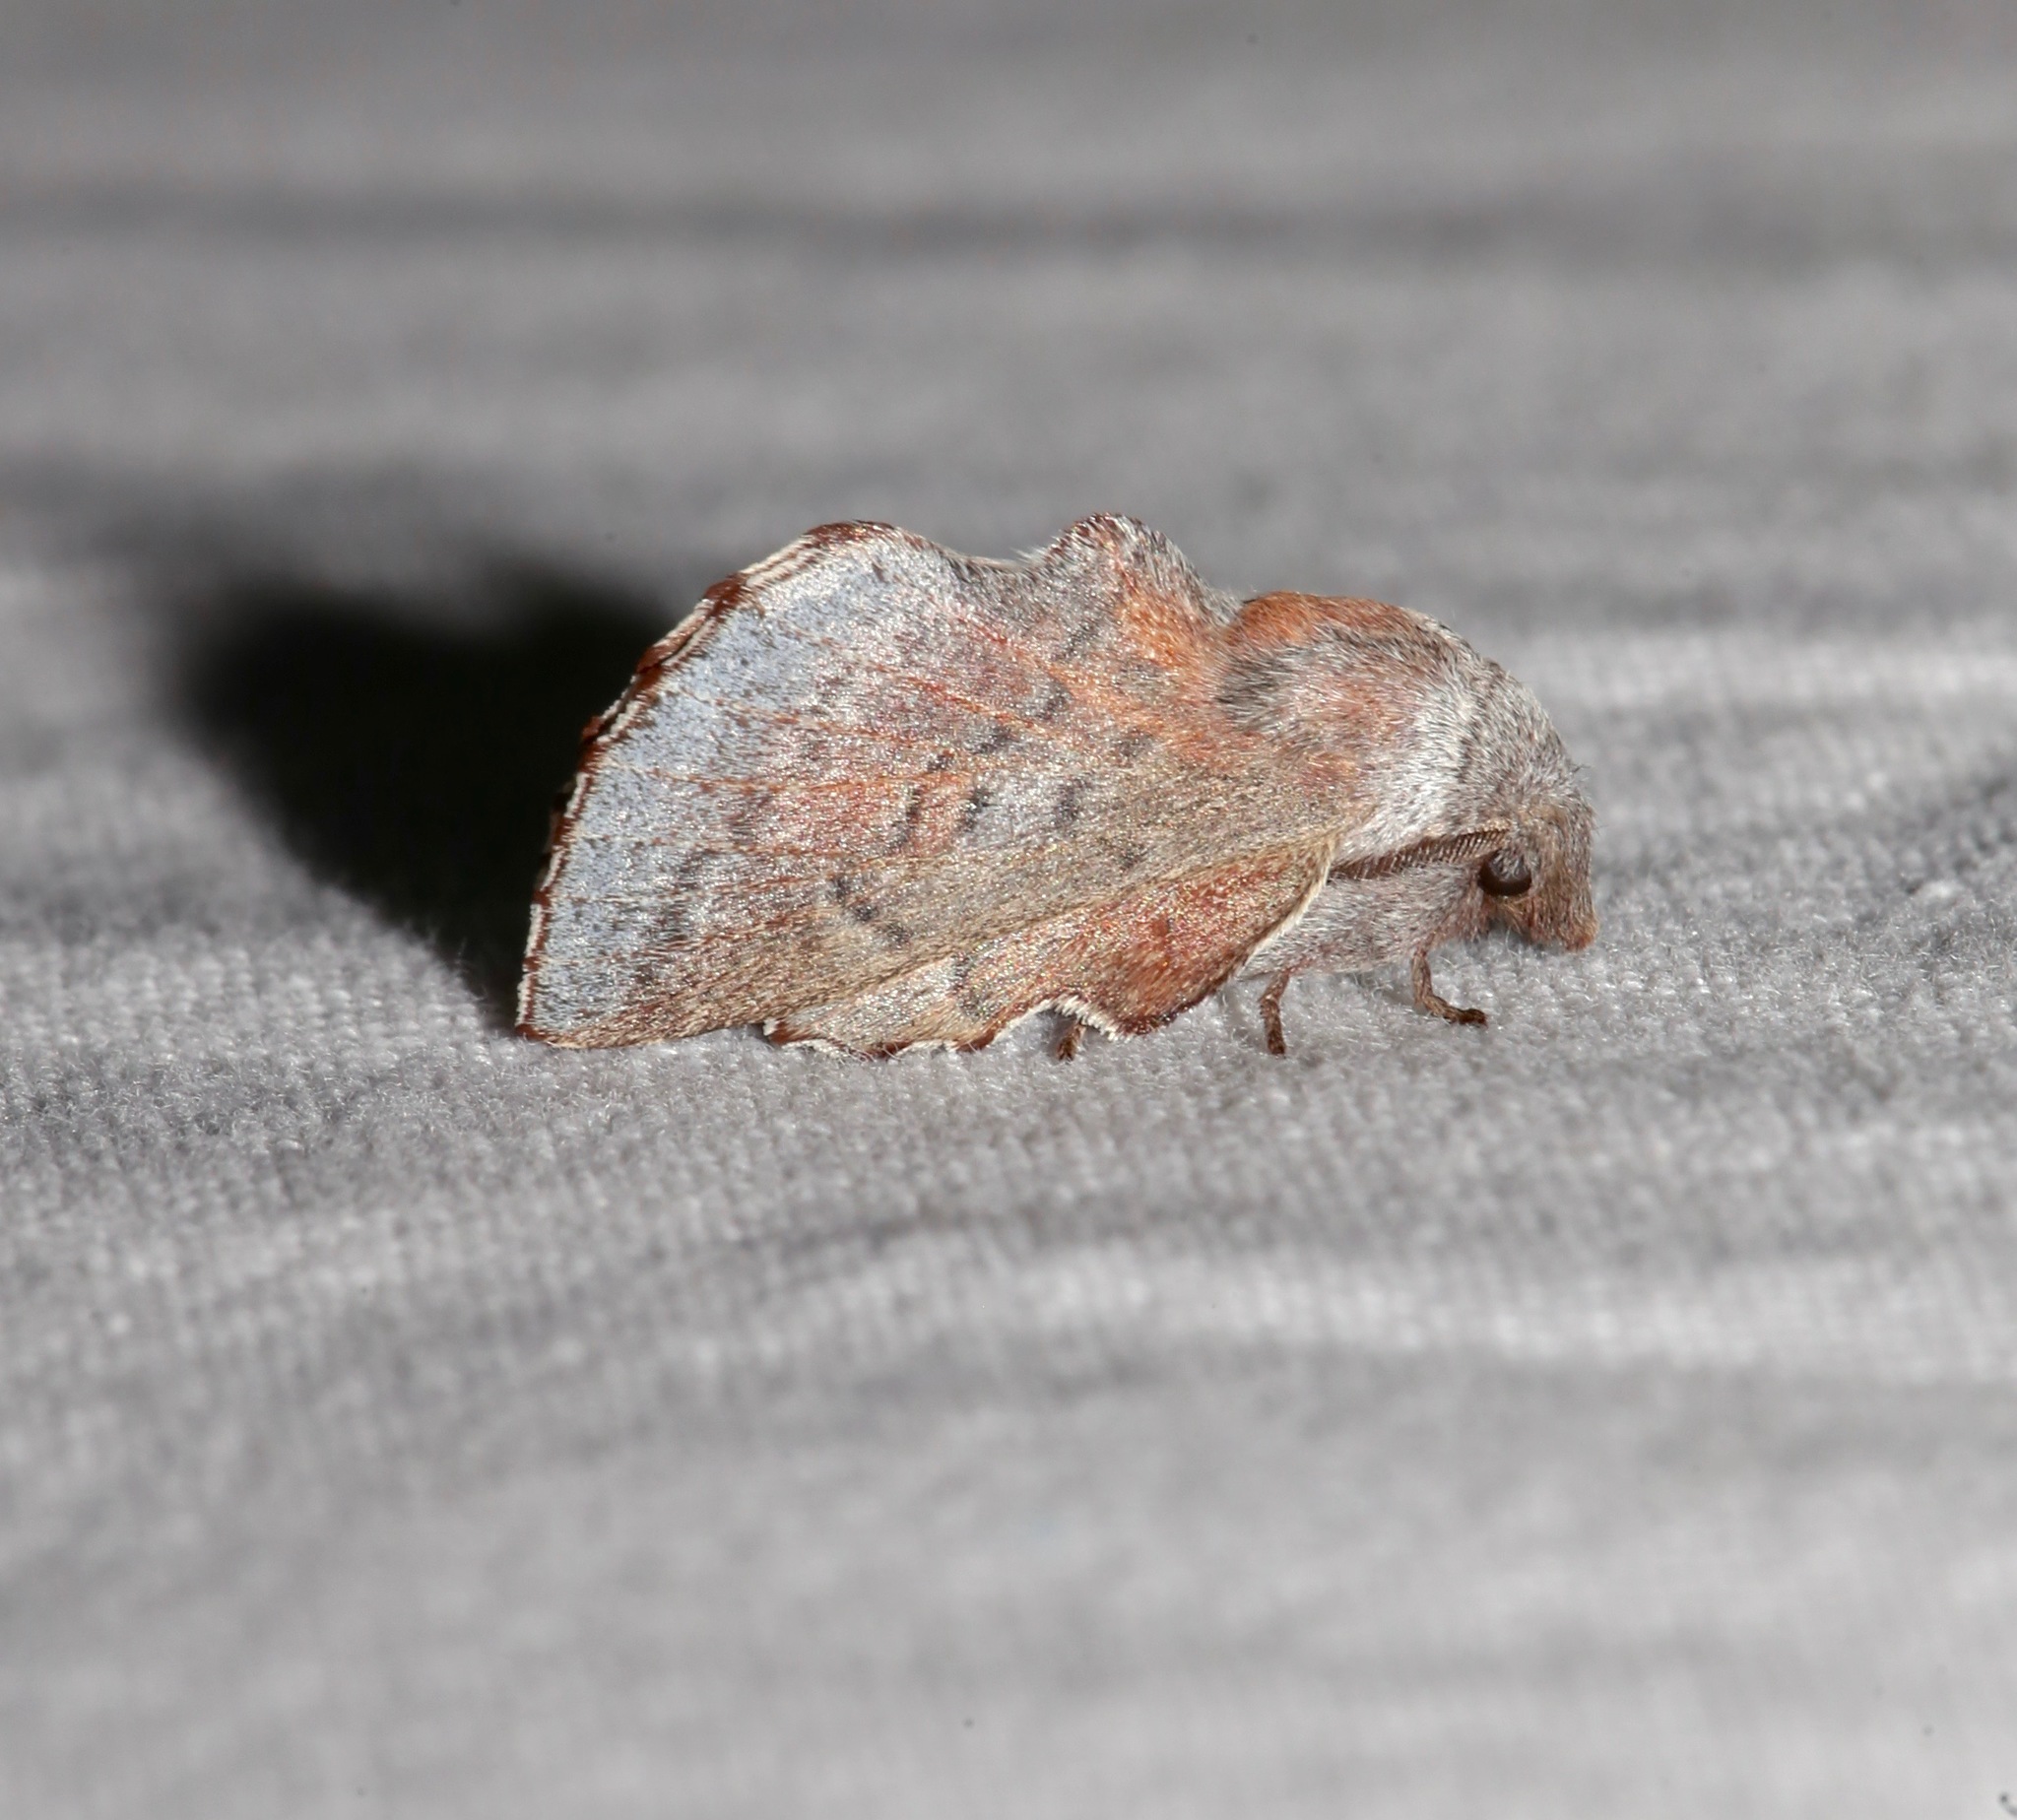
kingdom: Animalia
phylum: Arthropoda
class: Insecta
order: Lepidoptera
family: Lasiocampidae
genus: Phyllodesma
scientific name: Phyllodesma americana
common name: American lappet moth
